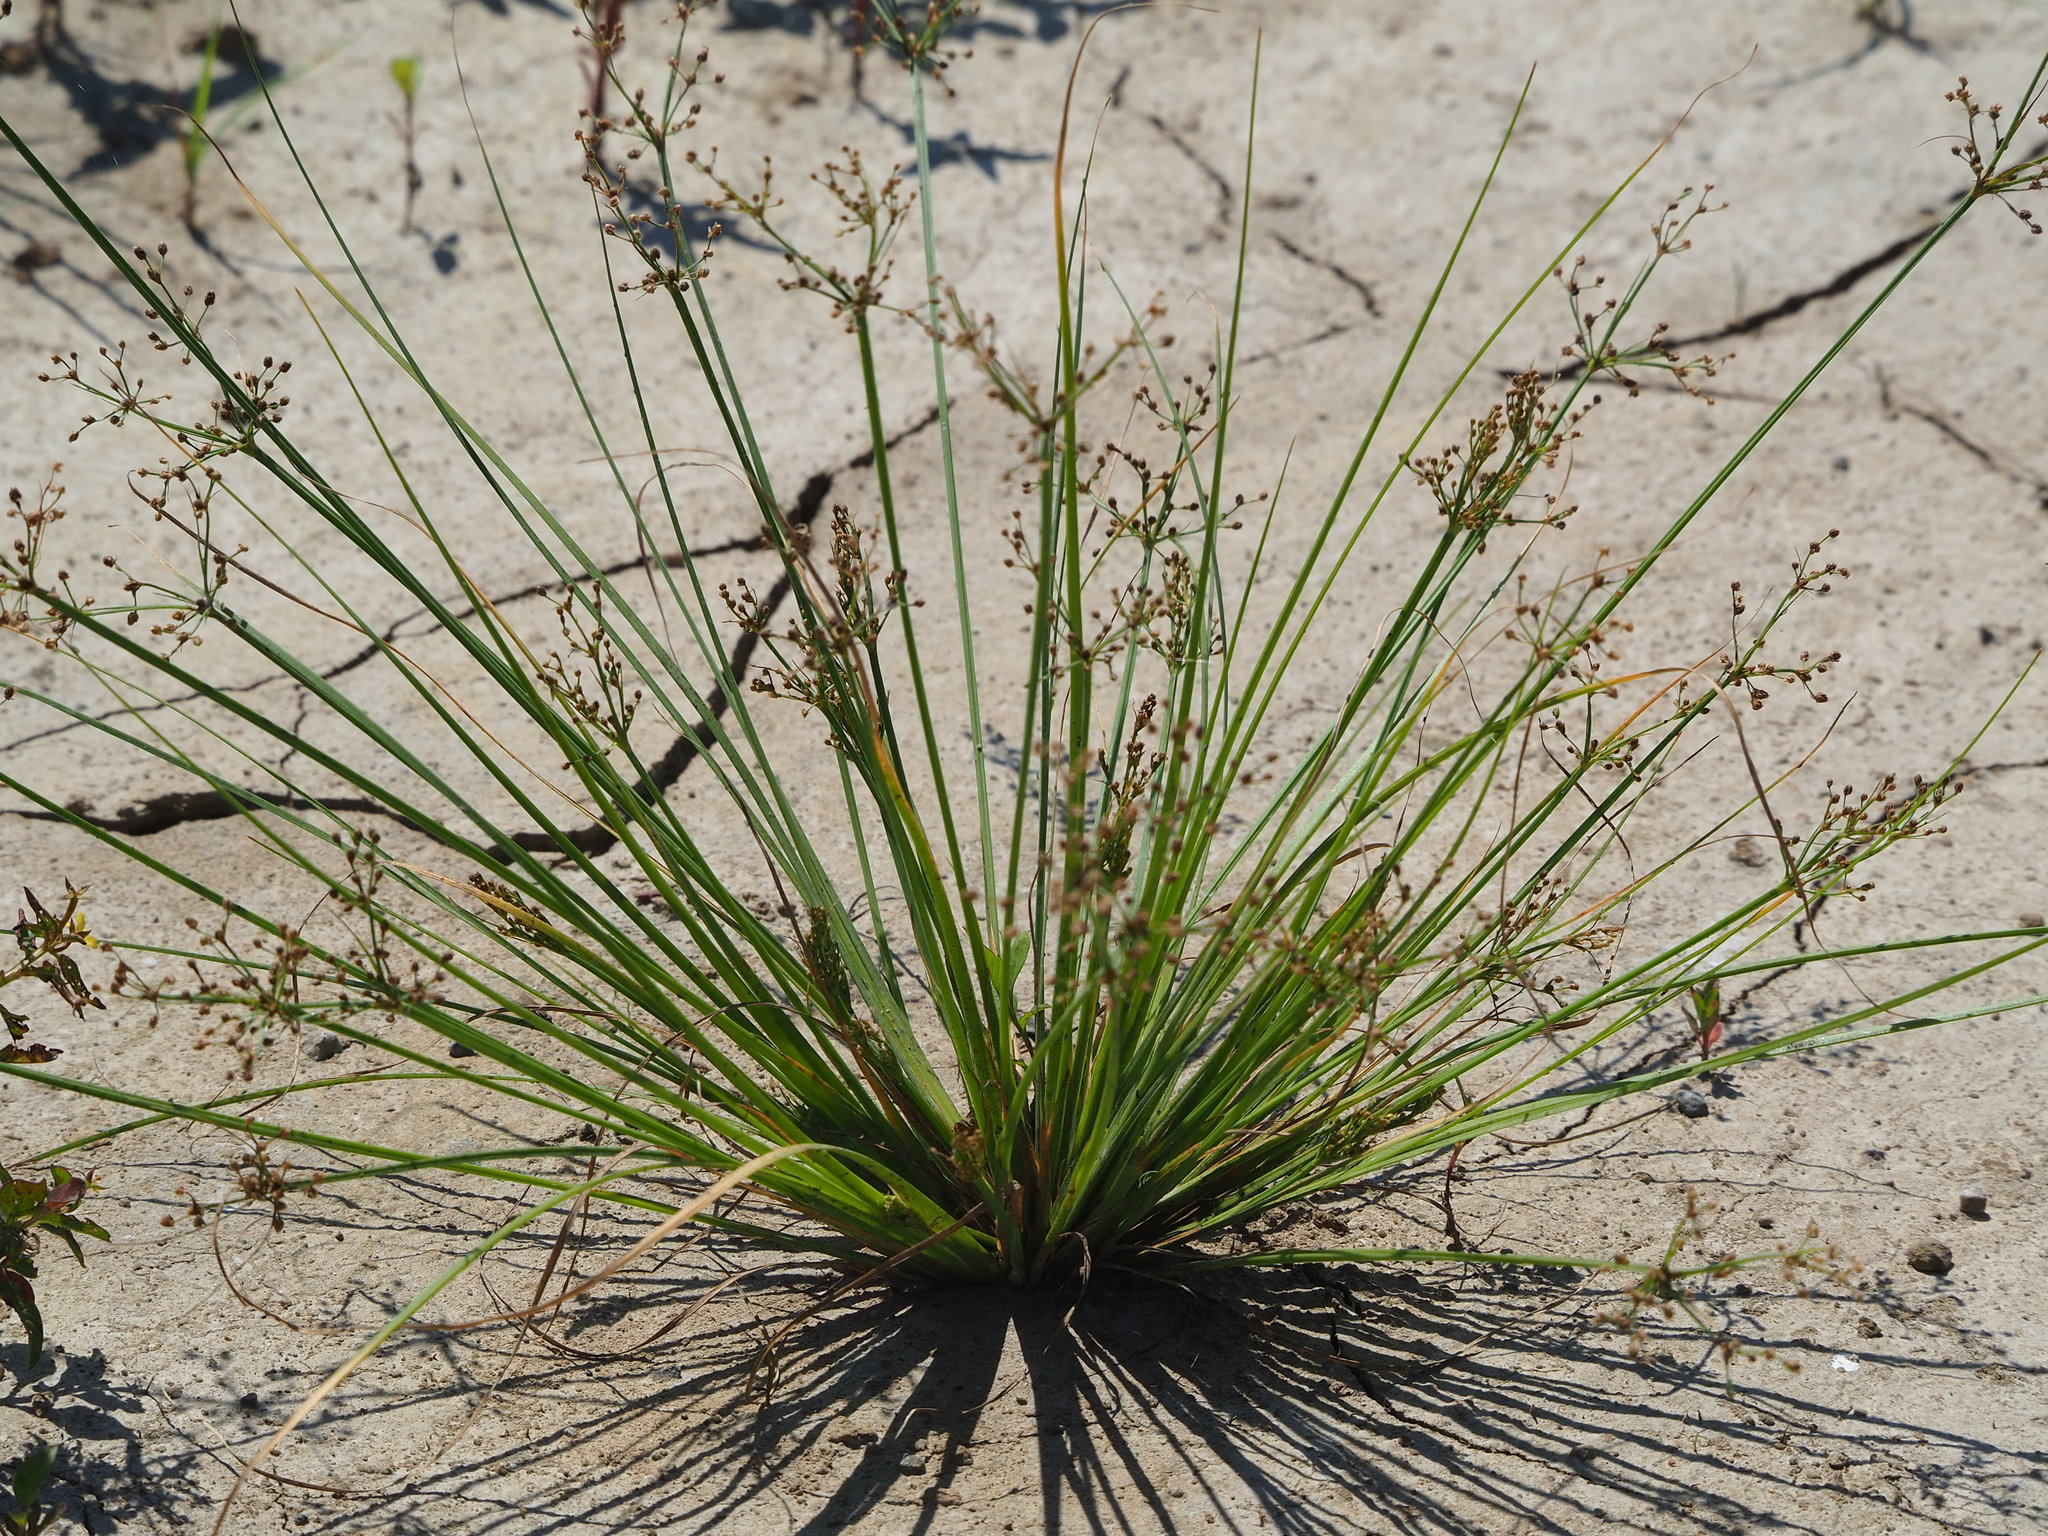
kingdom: Plantae
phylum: Tracheophyta
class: Liliopsida
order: Poales
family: Cyperaceae
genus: Fimbristylis
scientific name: Fimbristylis littoralis
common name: Fimbry
